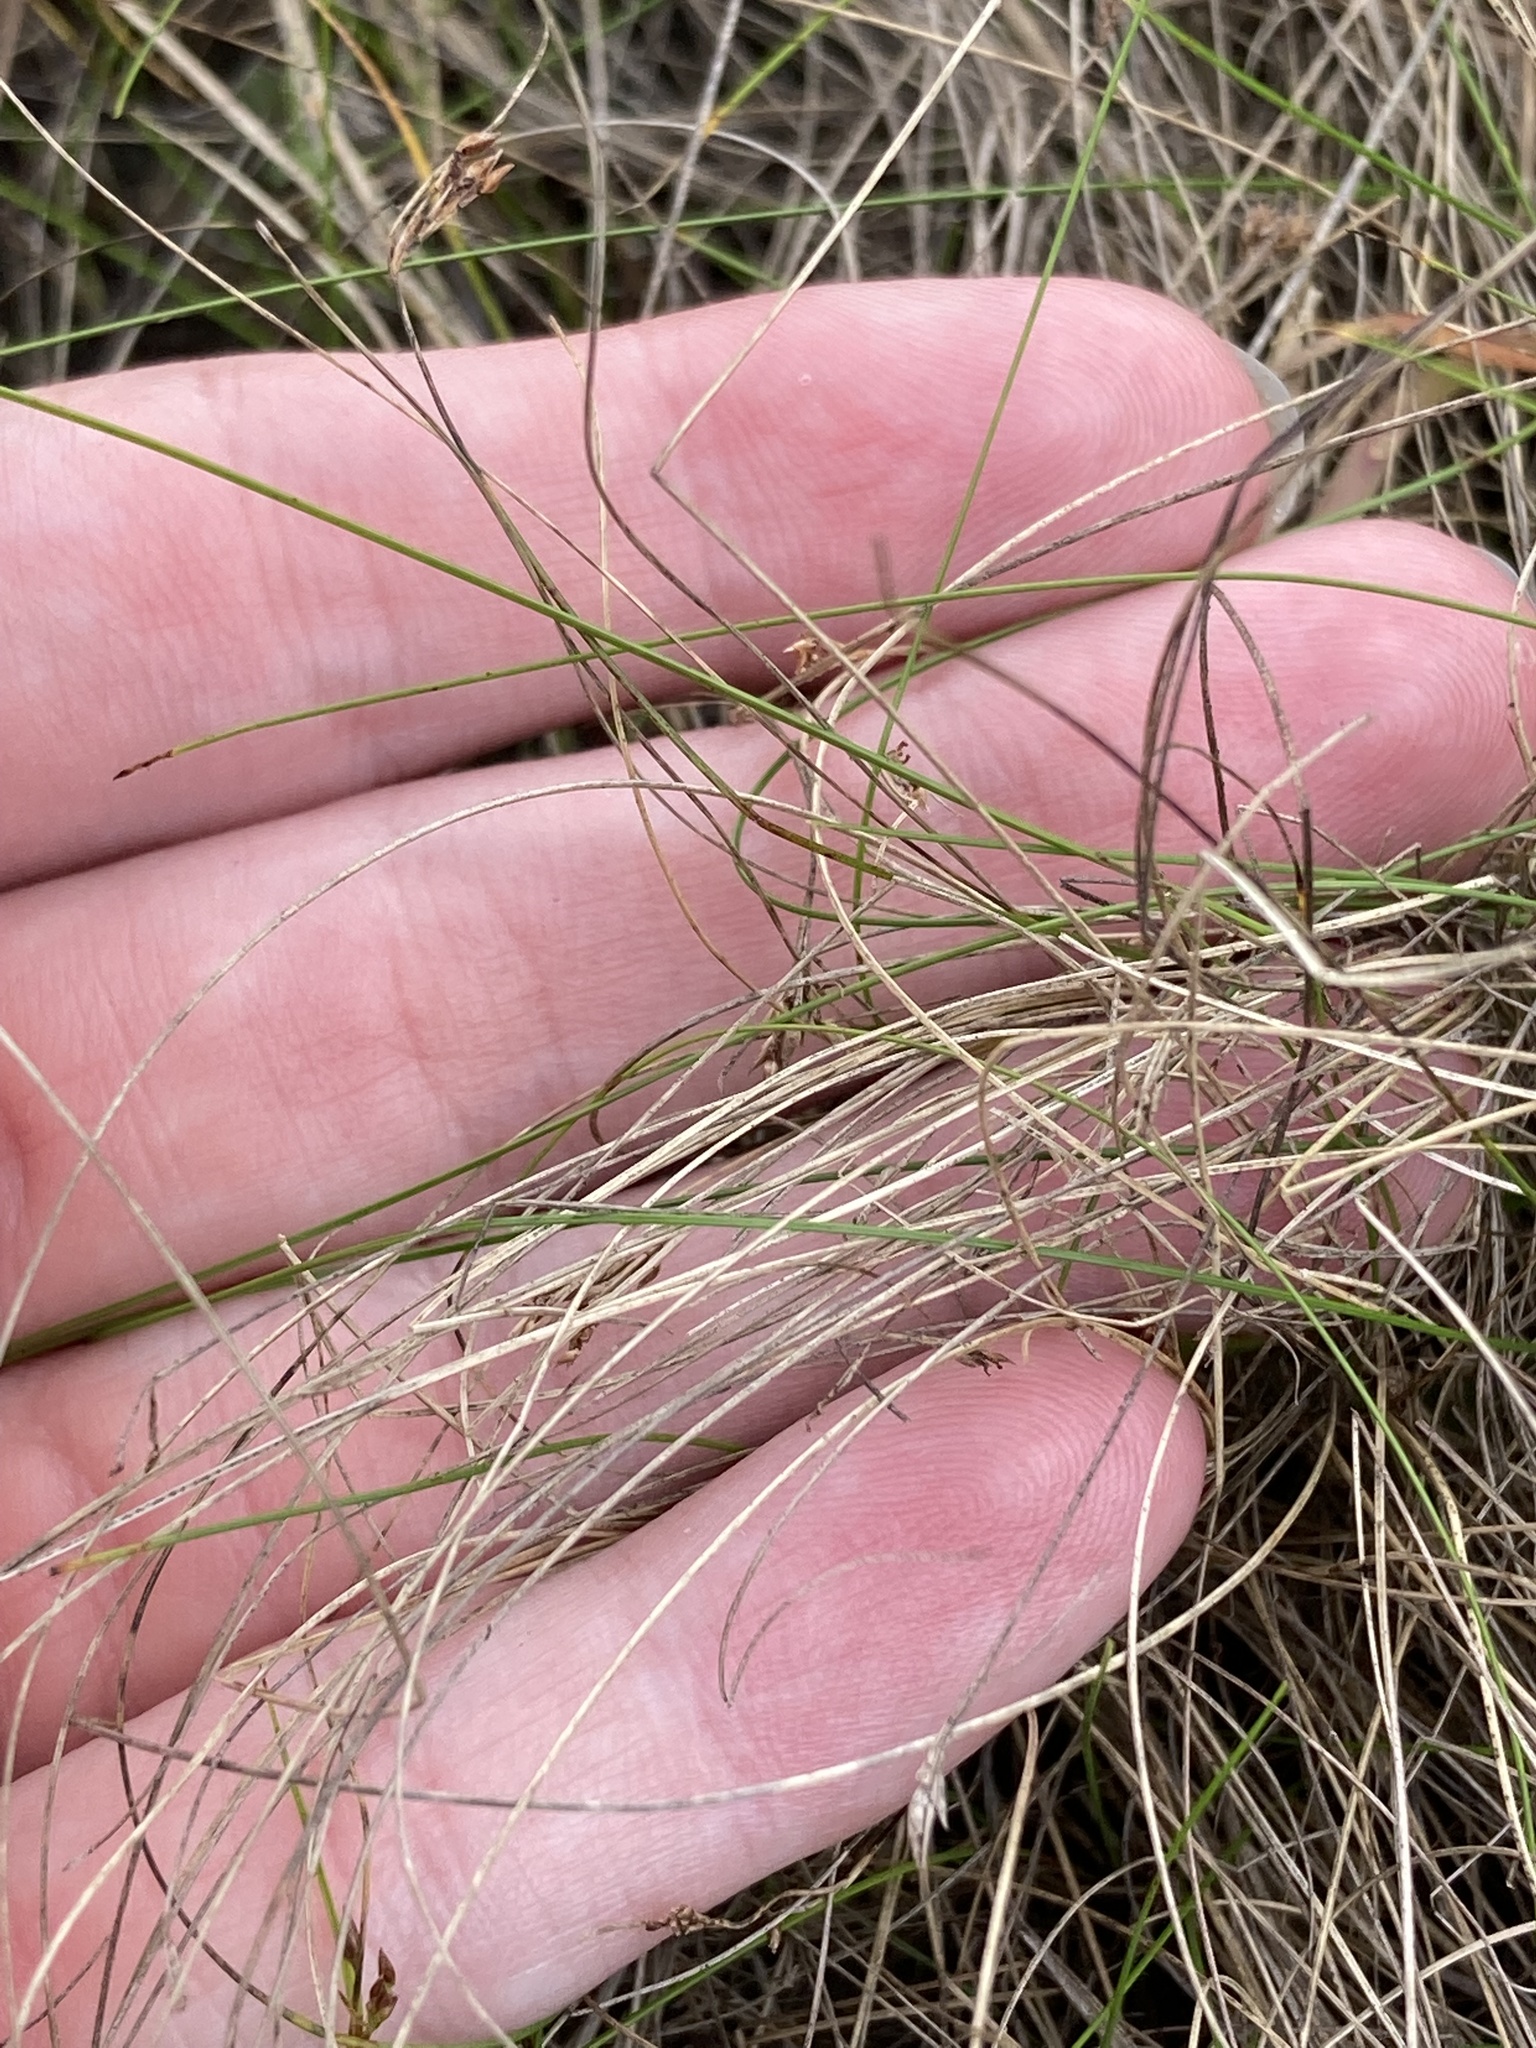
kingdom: Plantae
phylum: Tracheophyta
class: Liliopsida
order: Poales
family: Cyperaceae
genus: Rhynchospora
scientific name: Rhynchospora divergens
